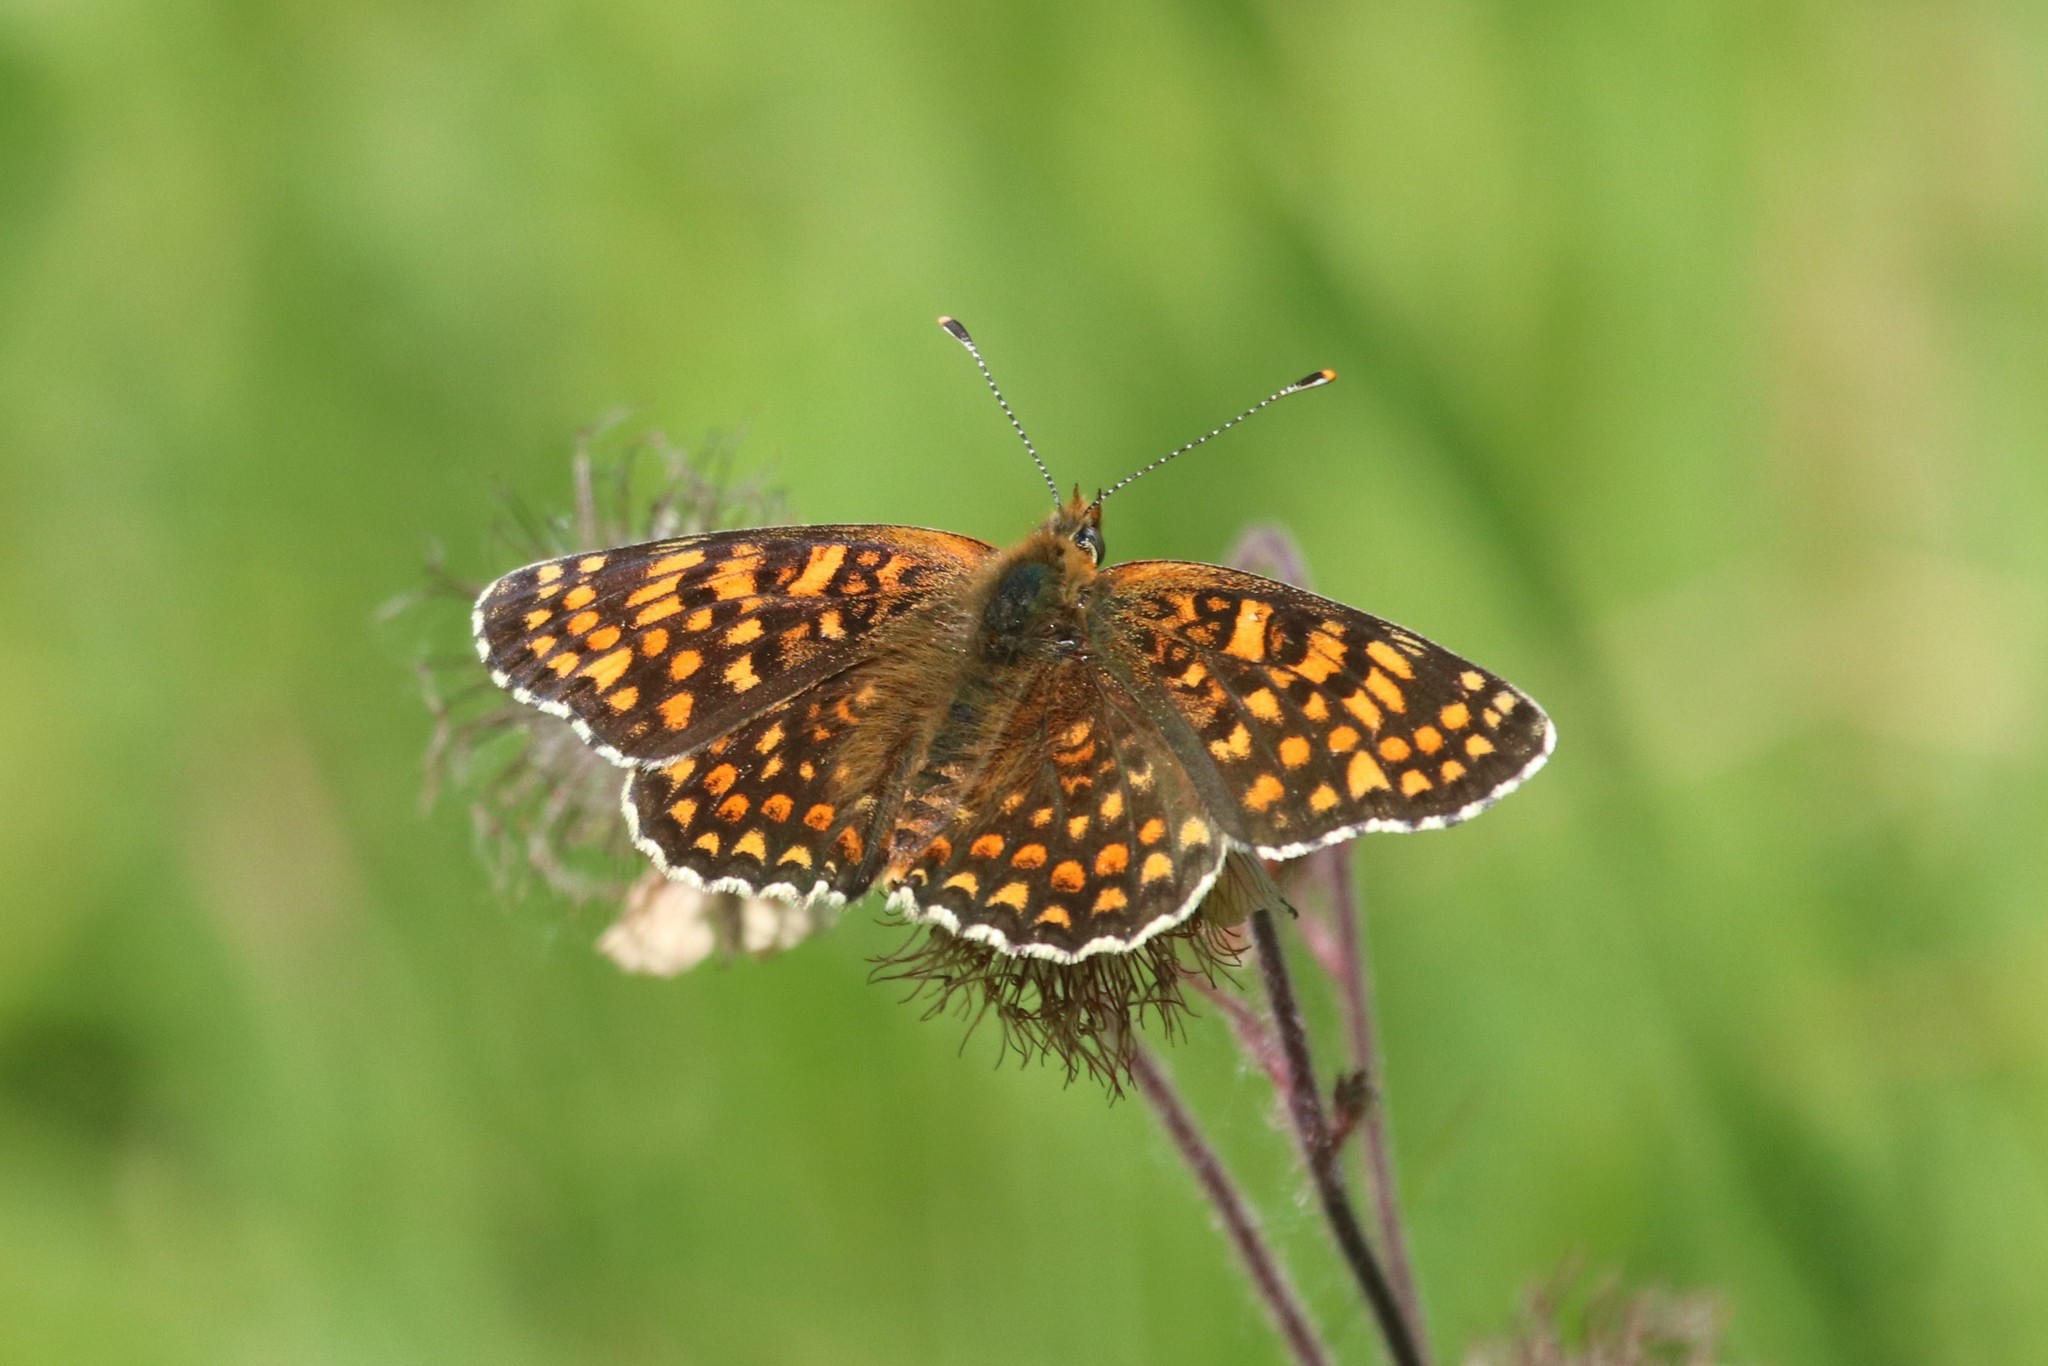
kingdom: Animalia
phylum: Arthropoda
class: Insecta
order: Lepidoptera
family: Nymphalidae
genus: Melitaea
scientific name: Melitaea phoebe
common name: Knapweed fritillary
